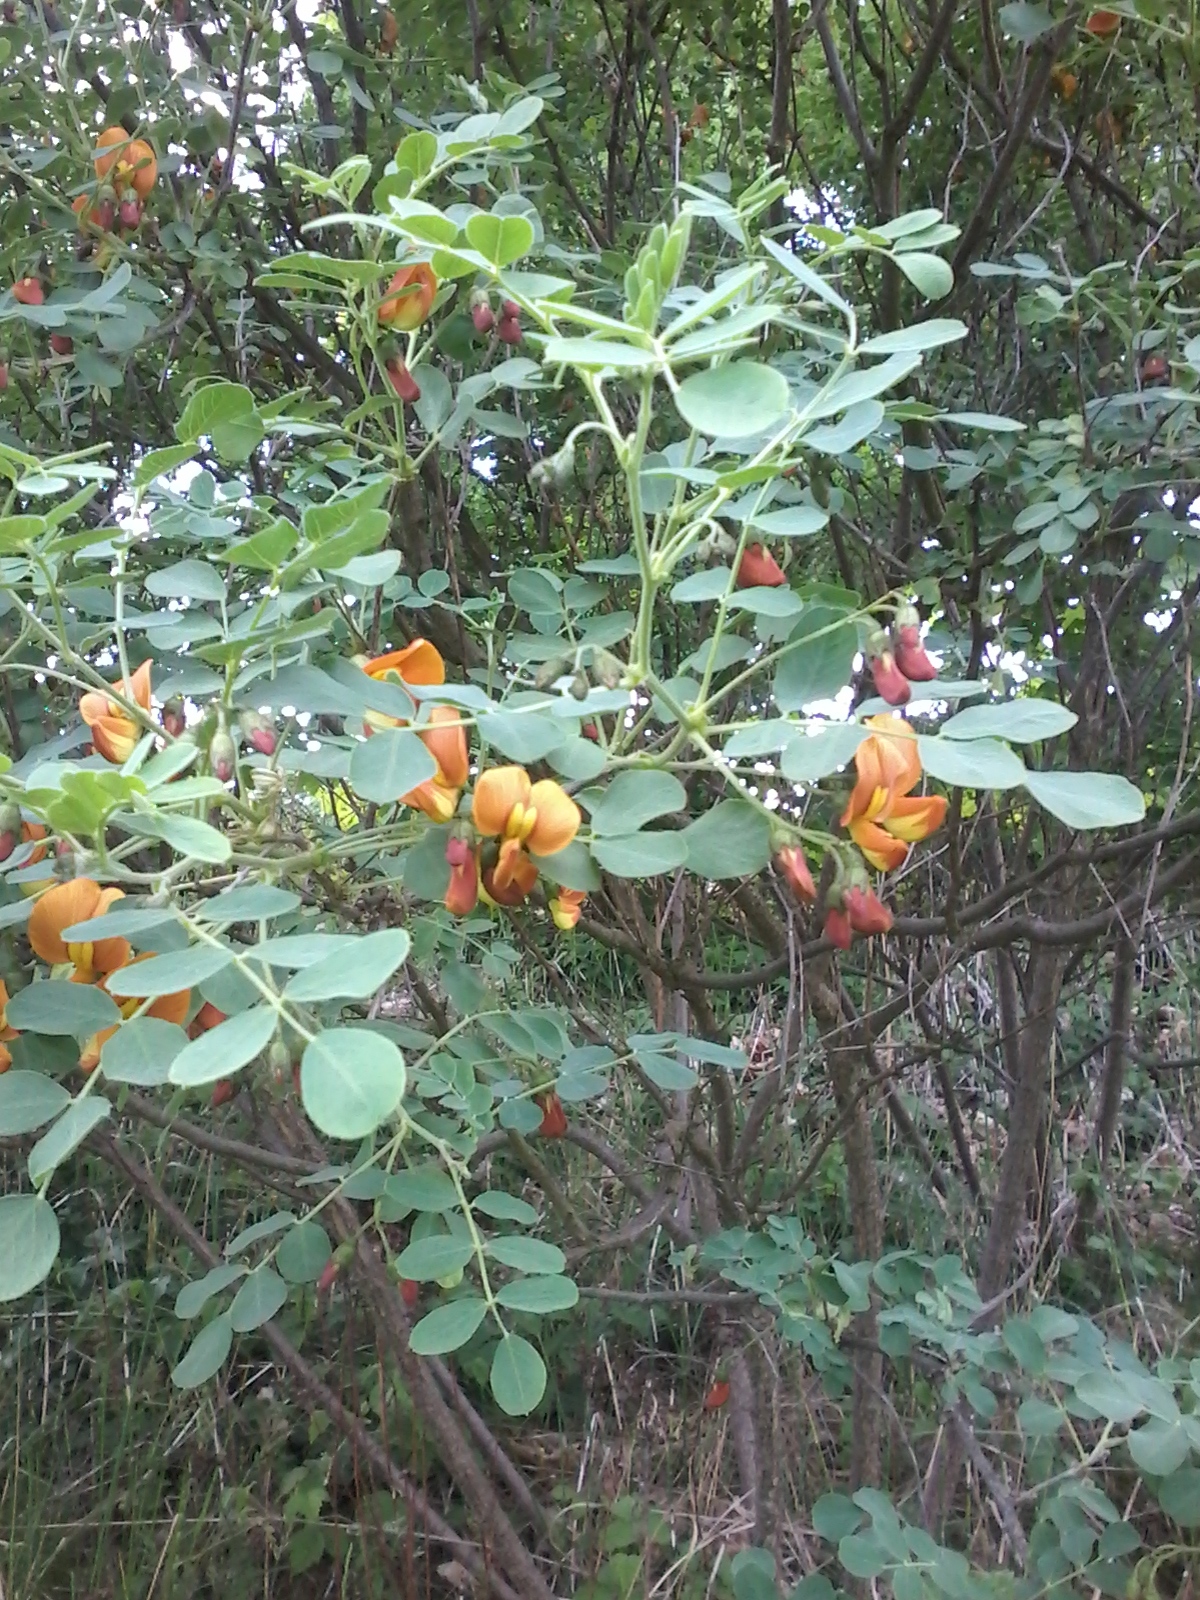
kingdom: Plantae
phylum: Tracheophyta
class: Magnoliopsida
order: Fabales
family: Fabaceae
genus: Colutea
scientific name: Colutea media
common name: Orange bladder-senna
